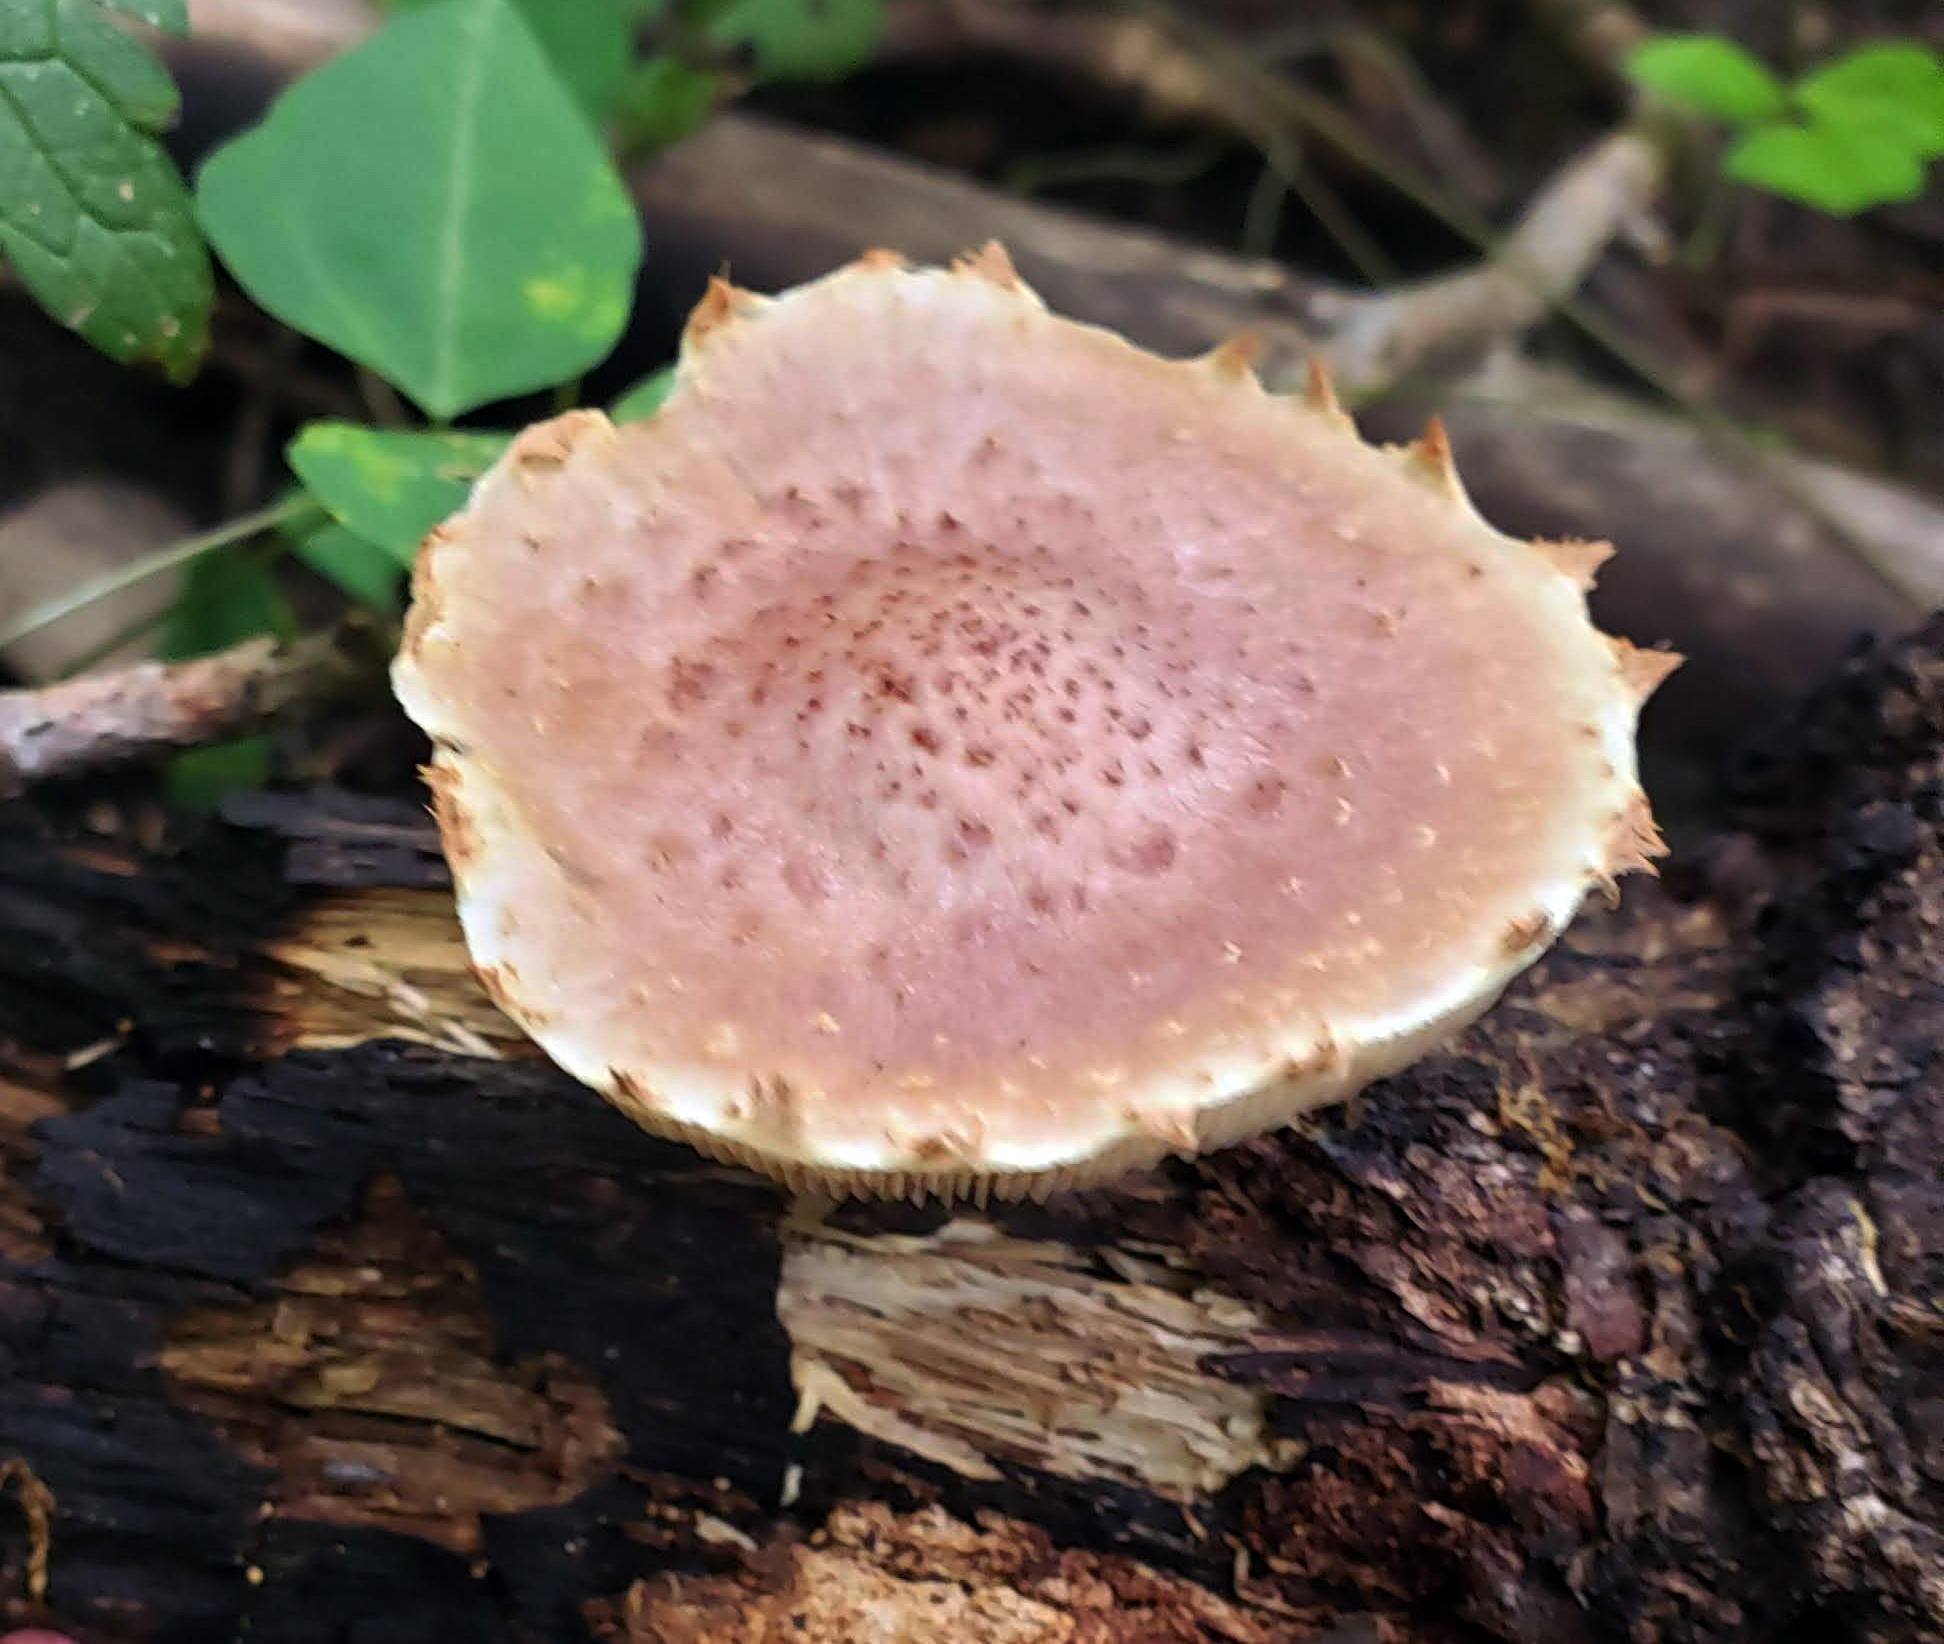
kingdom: Fungi
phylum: Basidiomycota
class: Agaricomycetes
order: Agaricales
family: Strophariaceae
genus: Pholiota
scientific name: Pholiota polychroa
